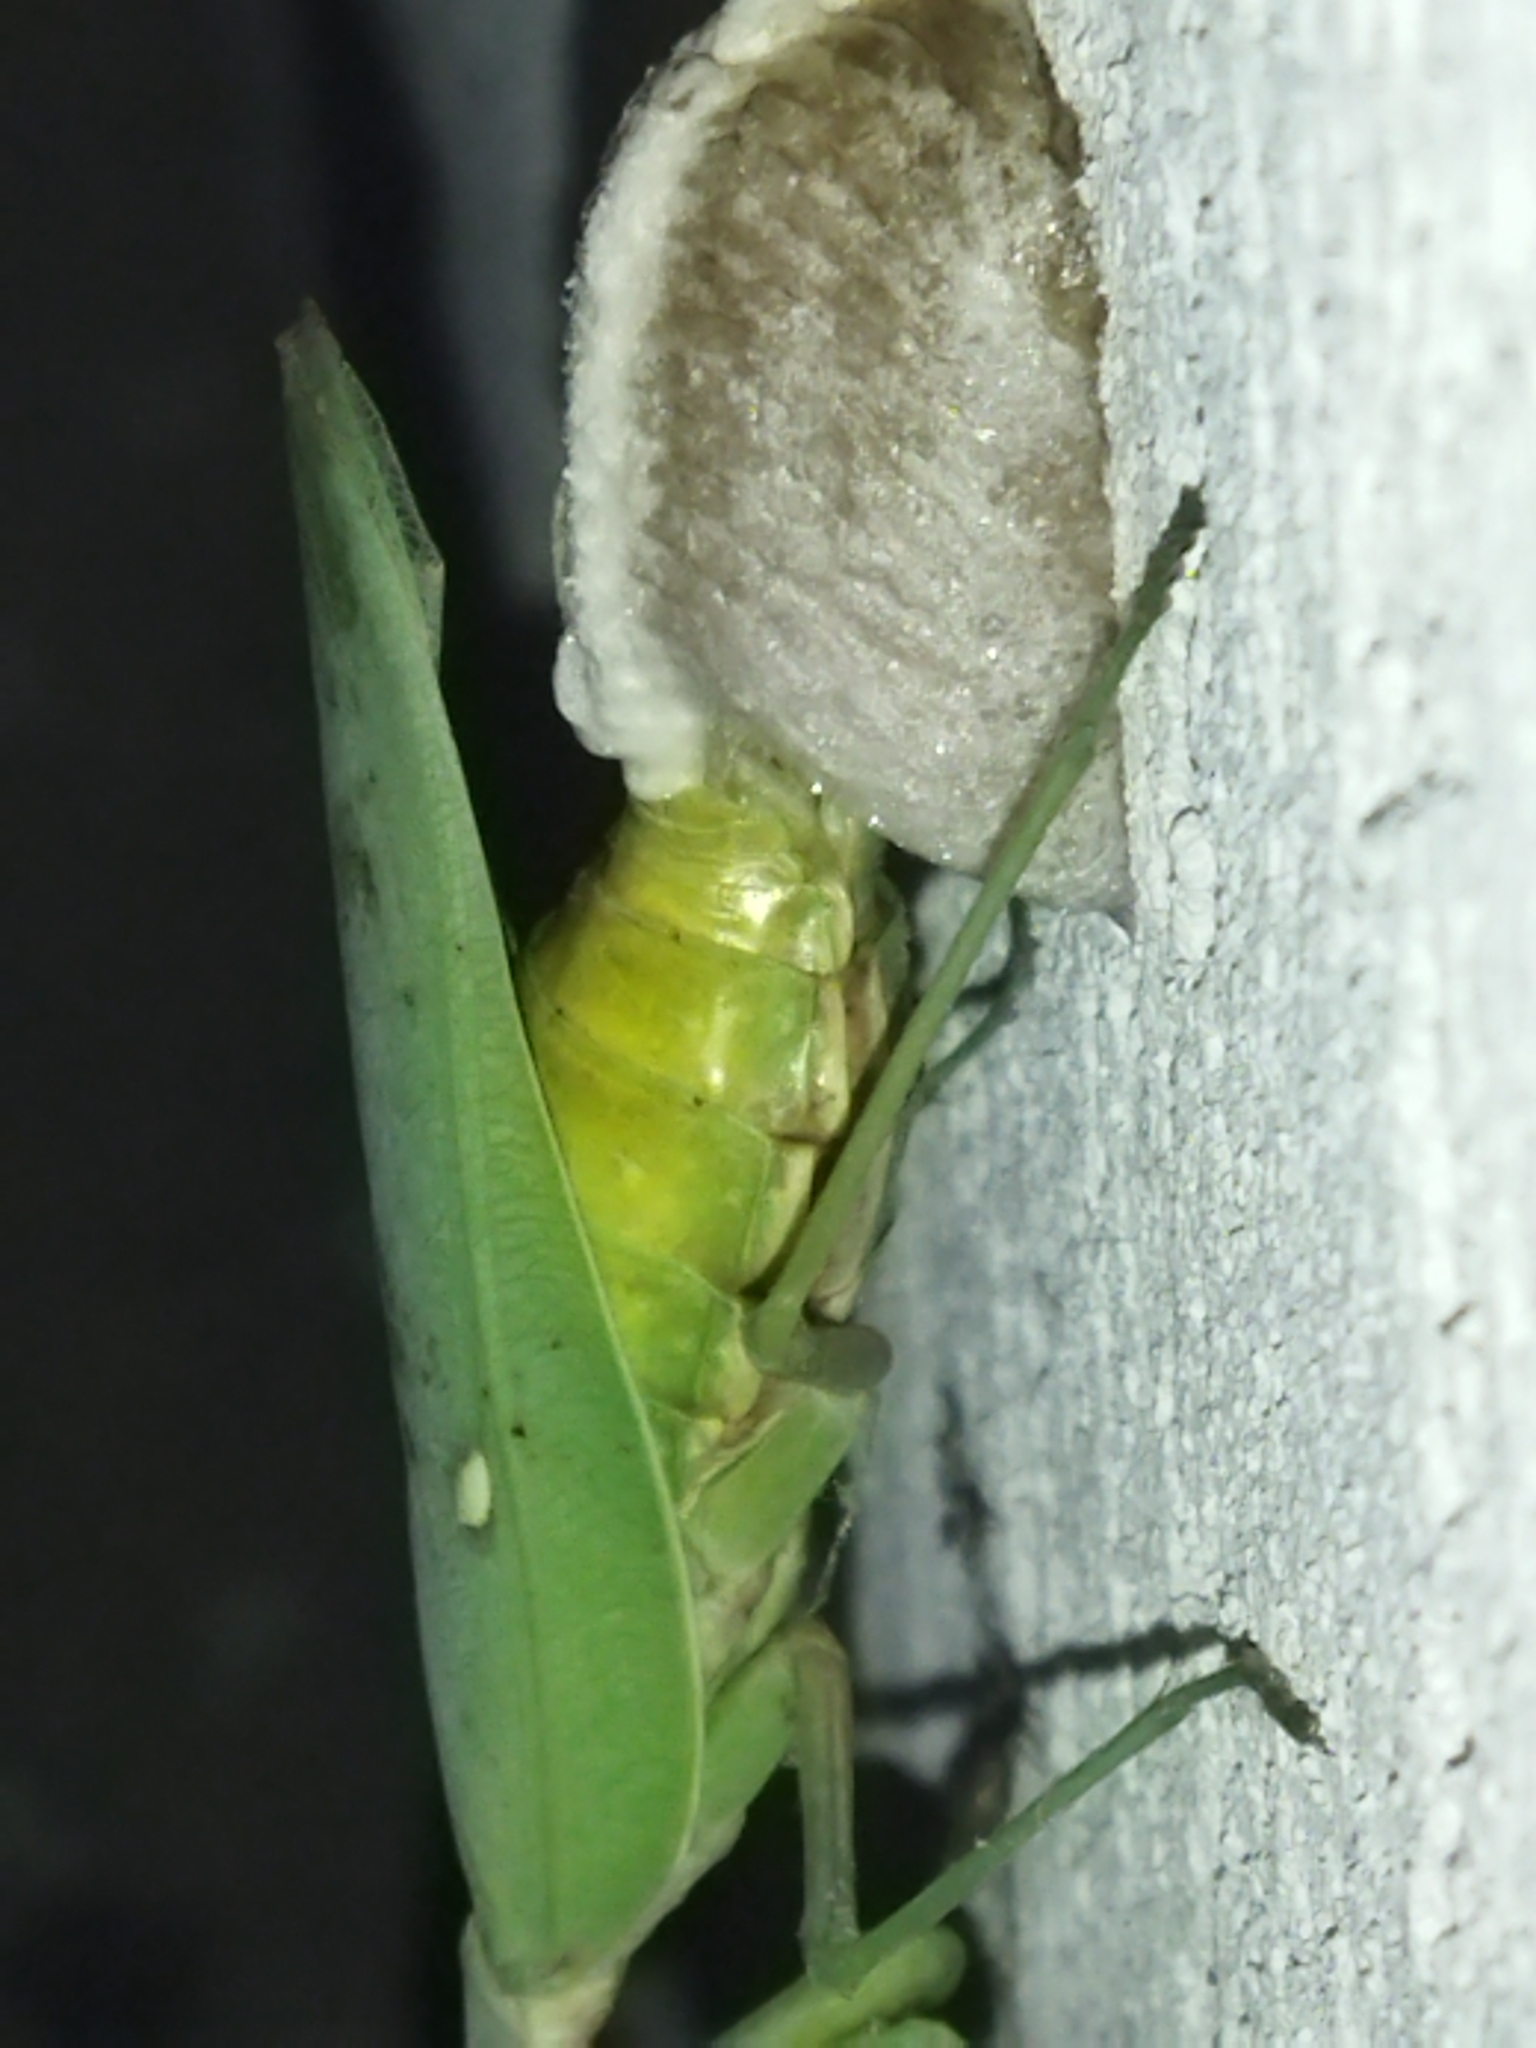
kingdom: Animalia
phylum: Arthropoda
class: Insecta
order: Mantodea
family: Mantidae
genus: Hierodula
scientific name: Hierodula transcaucasica
